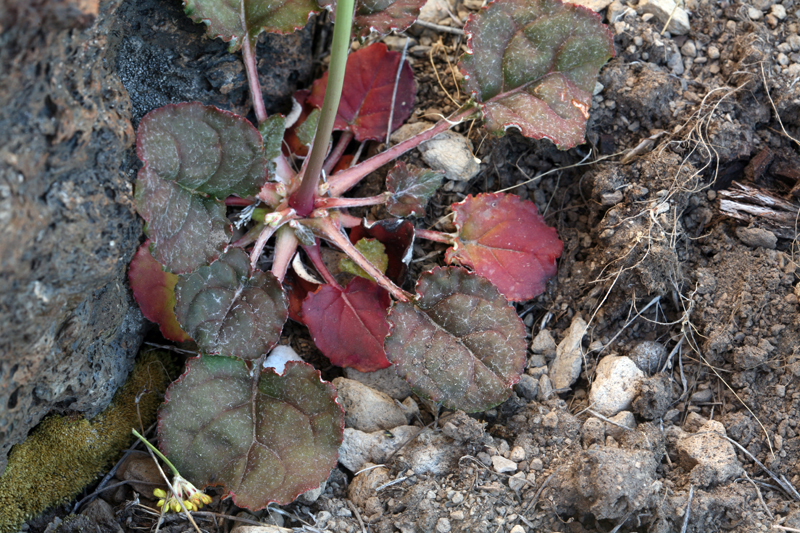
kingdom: Plantae
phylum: Tracheophyta
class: Magnoliopsida
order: Caryophyllales
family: Polygonaceae
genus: Eriogonum
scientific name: Eriogonum nudum
